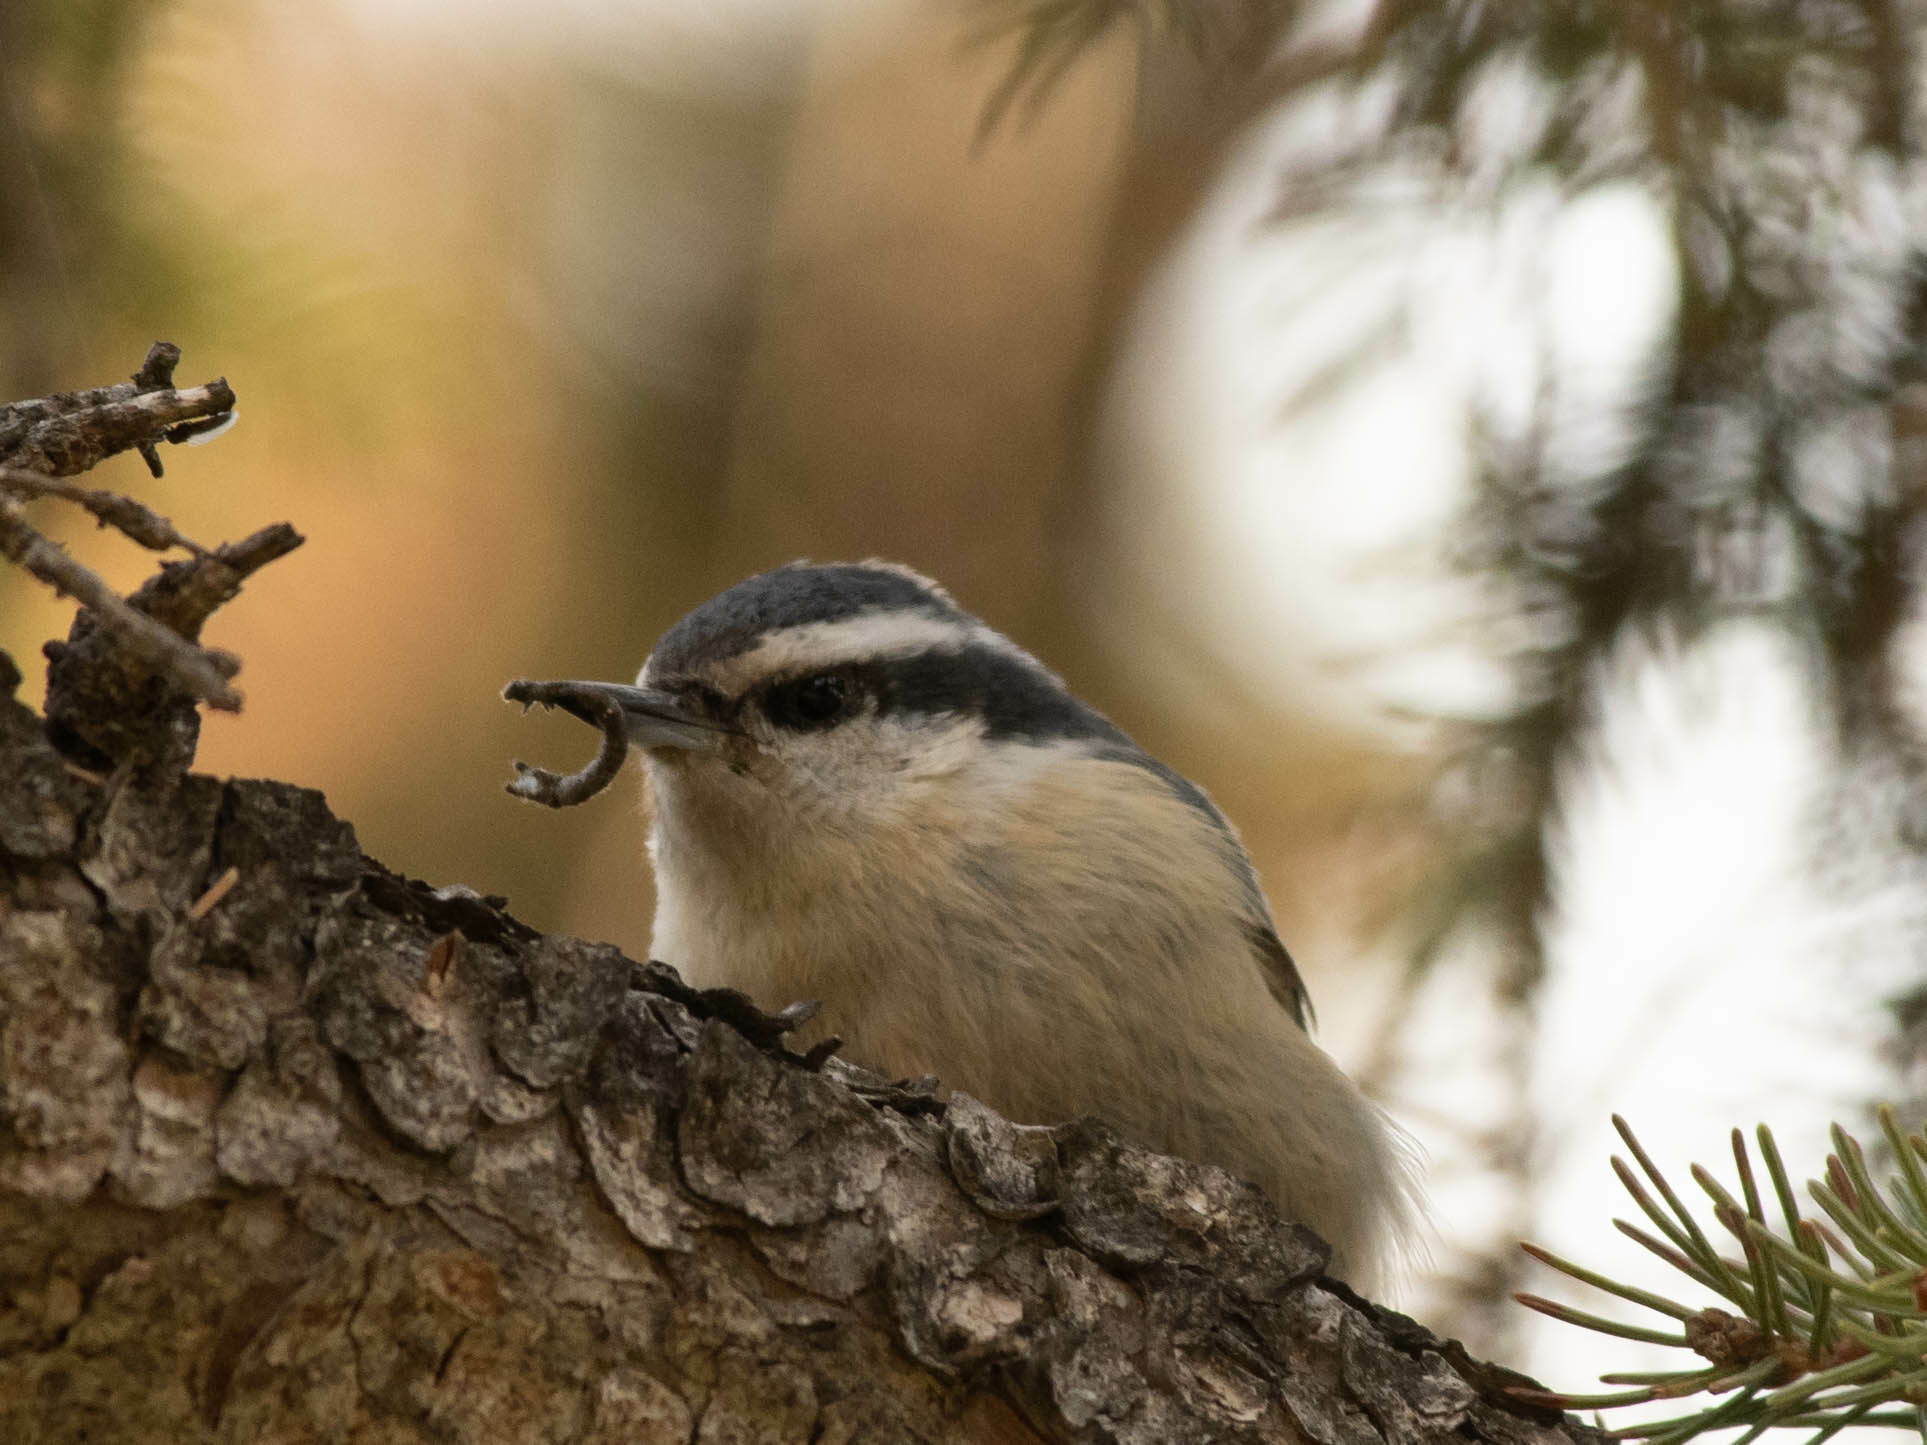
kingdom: Animalia
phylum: Chordata
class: Aves
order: Passeriformes
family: Sittidae
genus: Sitta
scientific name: Sitta canadensis
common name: Red-breasted nuthatch
